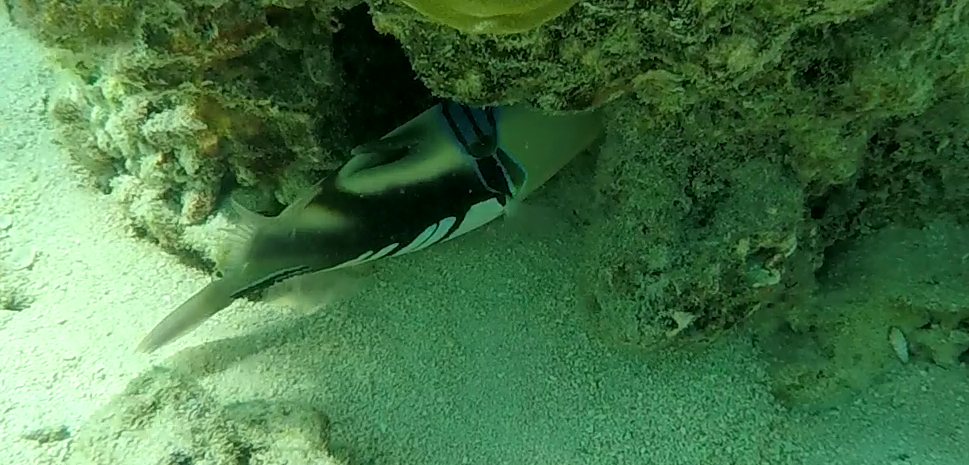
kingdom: Animalia
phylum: Chordata
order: Tetraodontiformes
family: Balistidae
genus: Rhinecanthus
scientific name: Rhinecanthus aculeatus
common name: White-banded triggerfish
